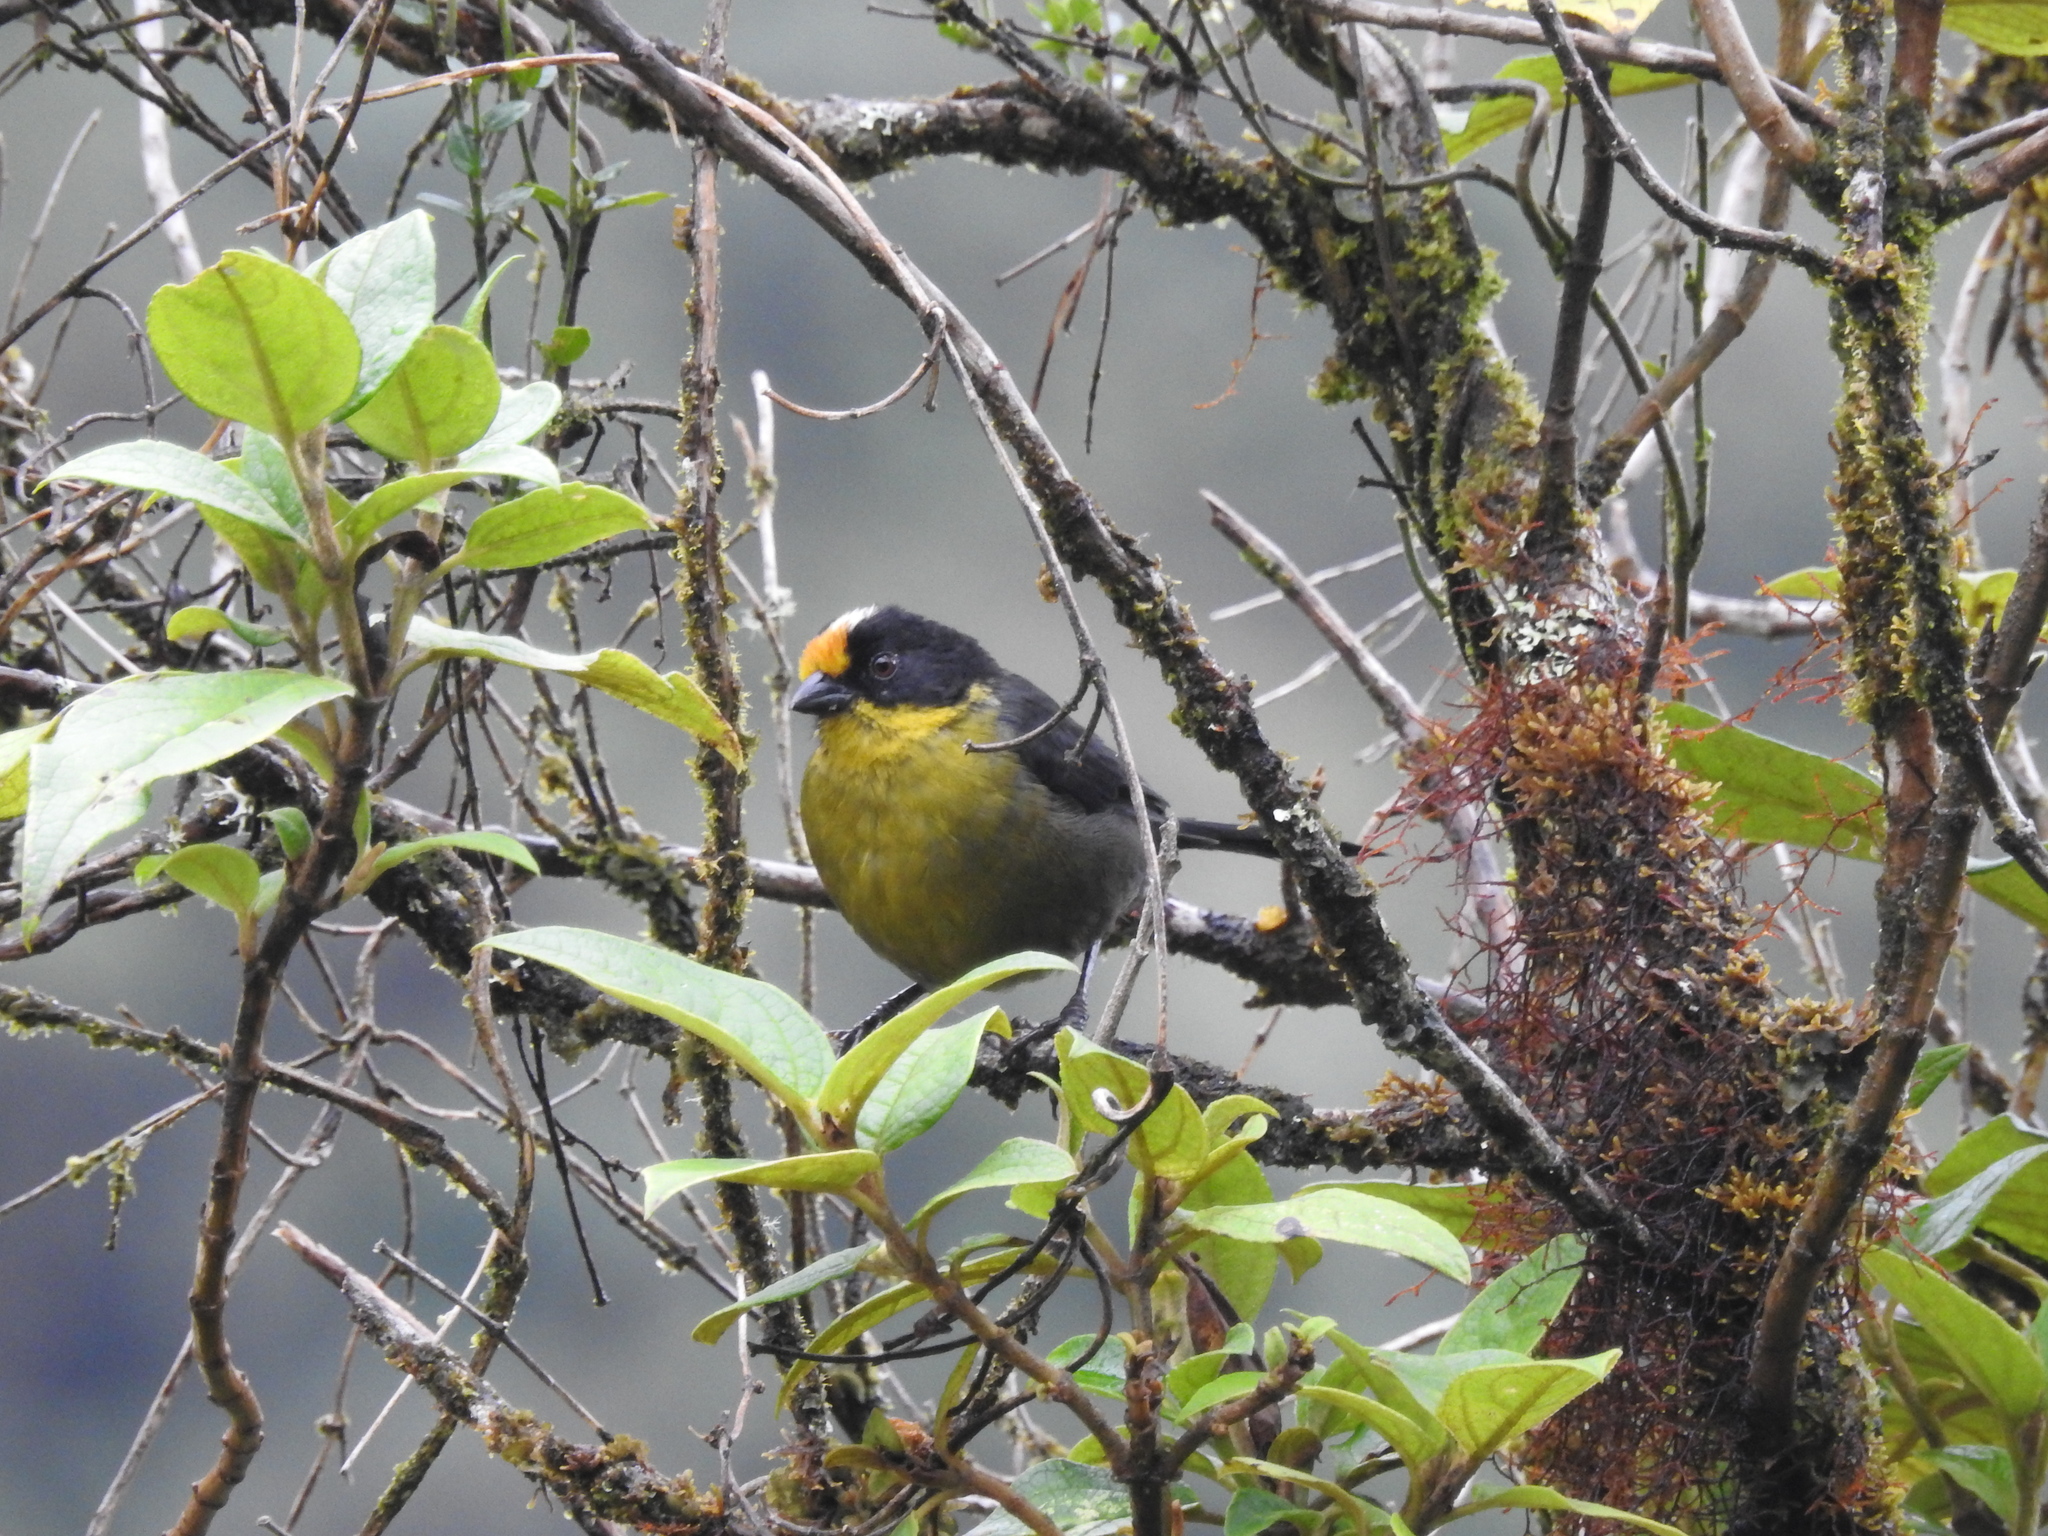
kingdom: Animalia
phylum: Chordata
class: Aves
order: Passeriformes
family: Passerellidae
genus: Atlapetes
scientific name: Atlapetes pallidinucha
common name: Pale-naped brushfinch
